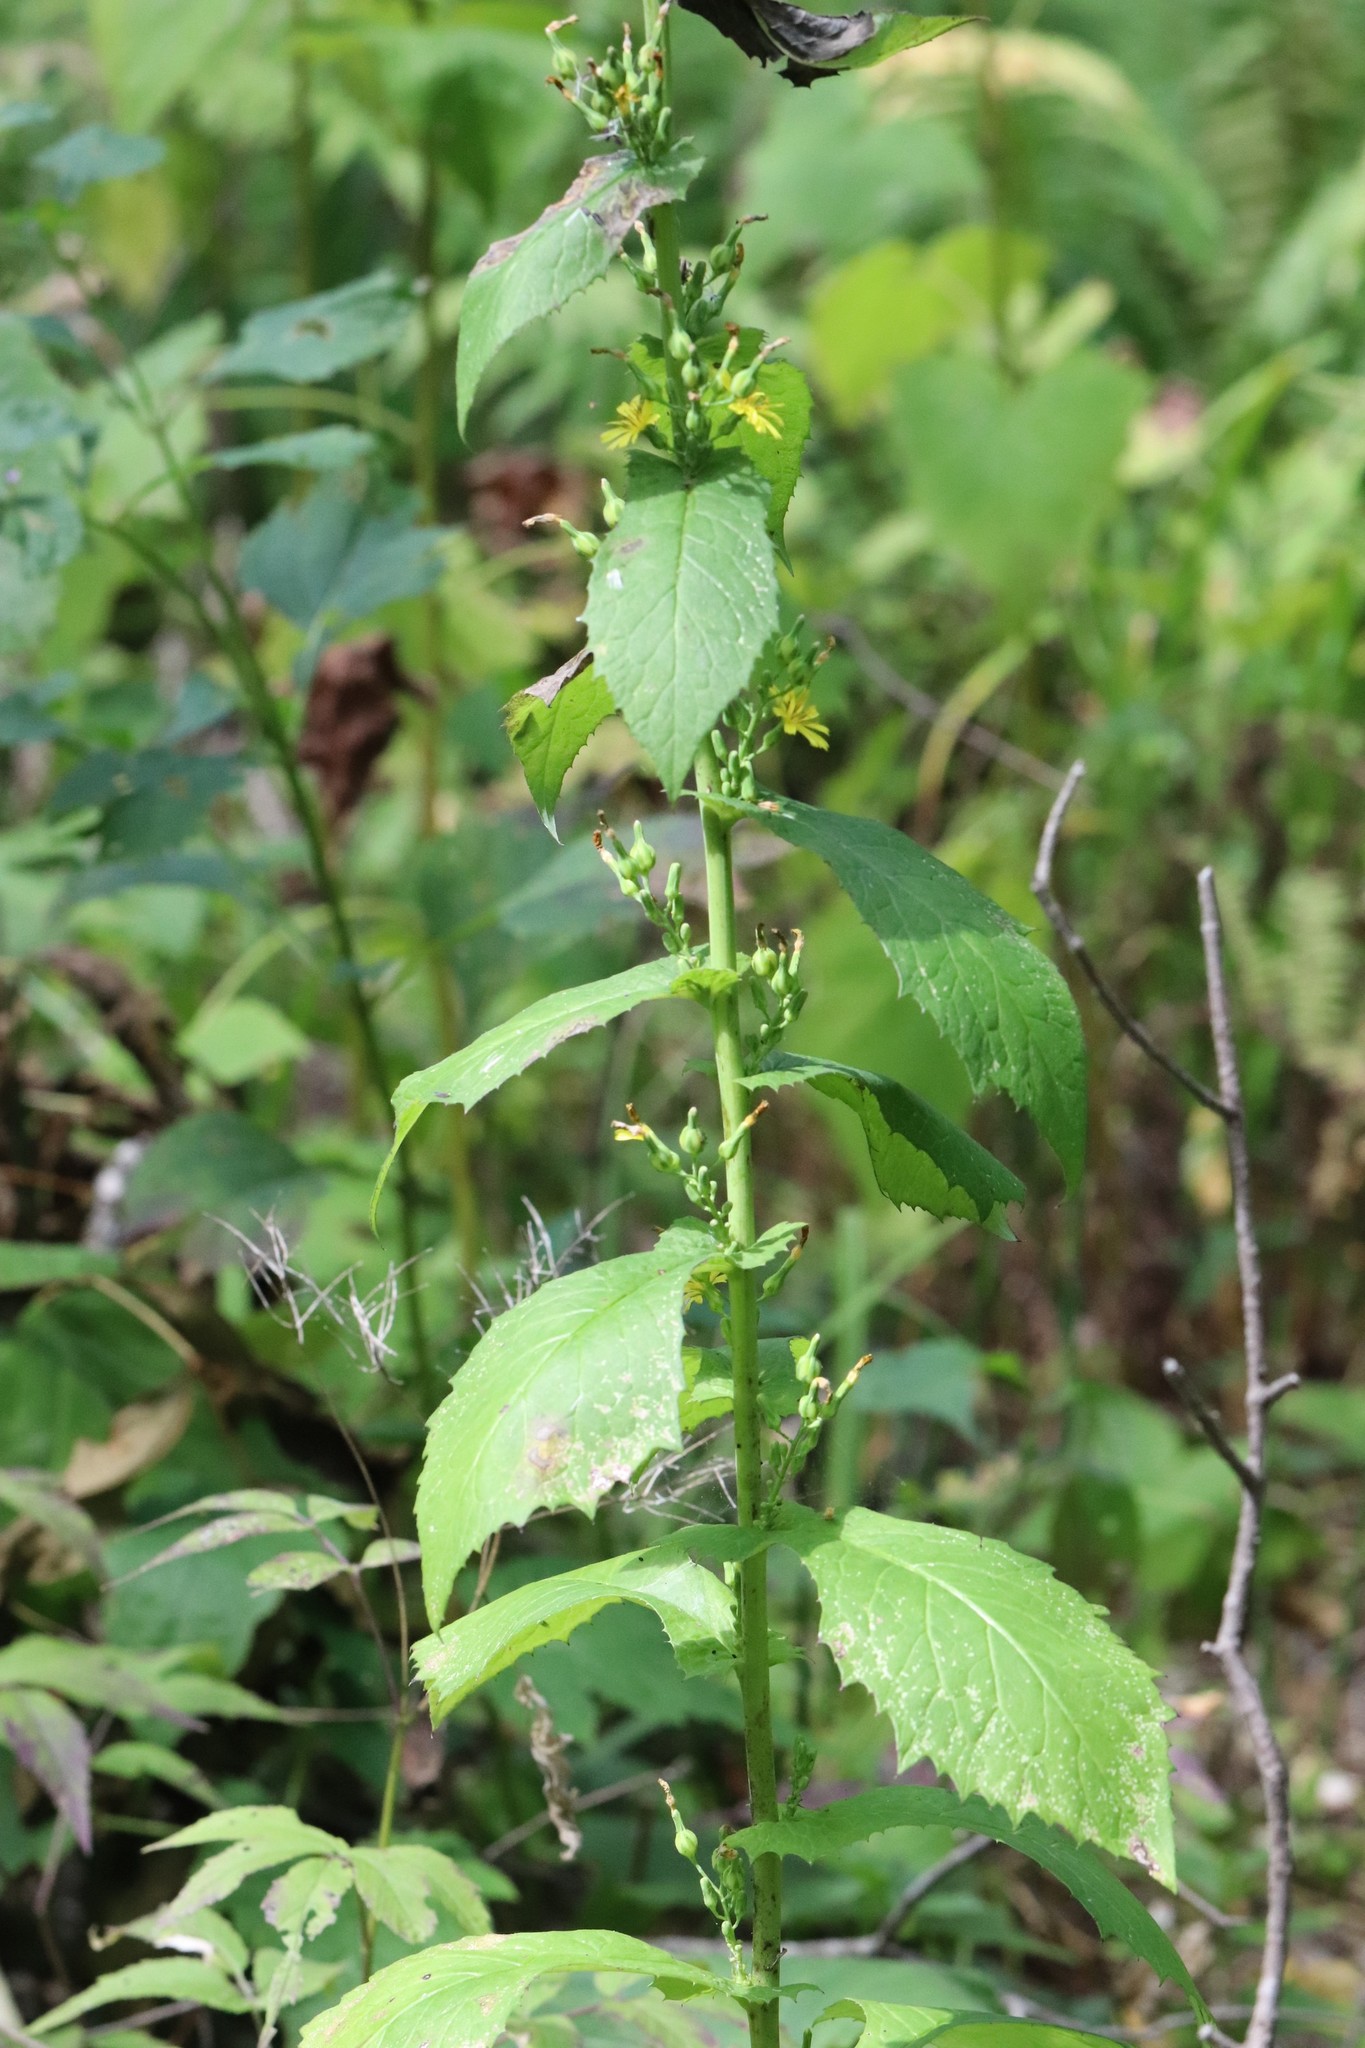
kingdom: Plantae
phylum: Tracheophyta
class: Magnoliopsida
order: Asterales
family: Asteraceae
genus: Lactuca
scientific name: Lactuca triangulata
